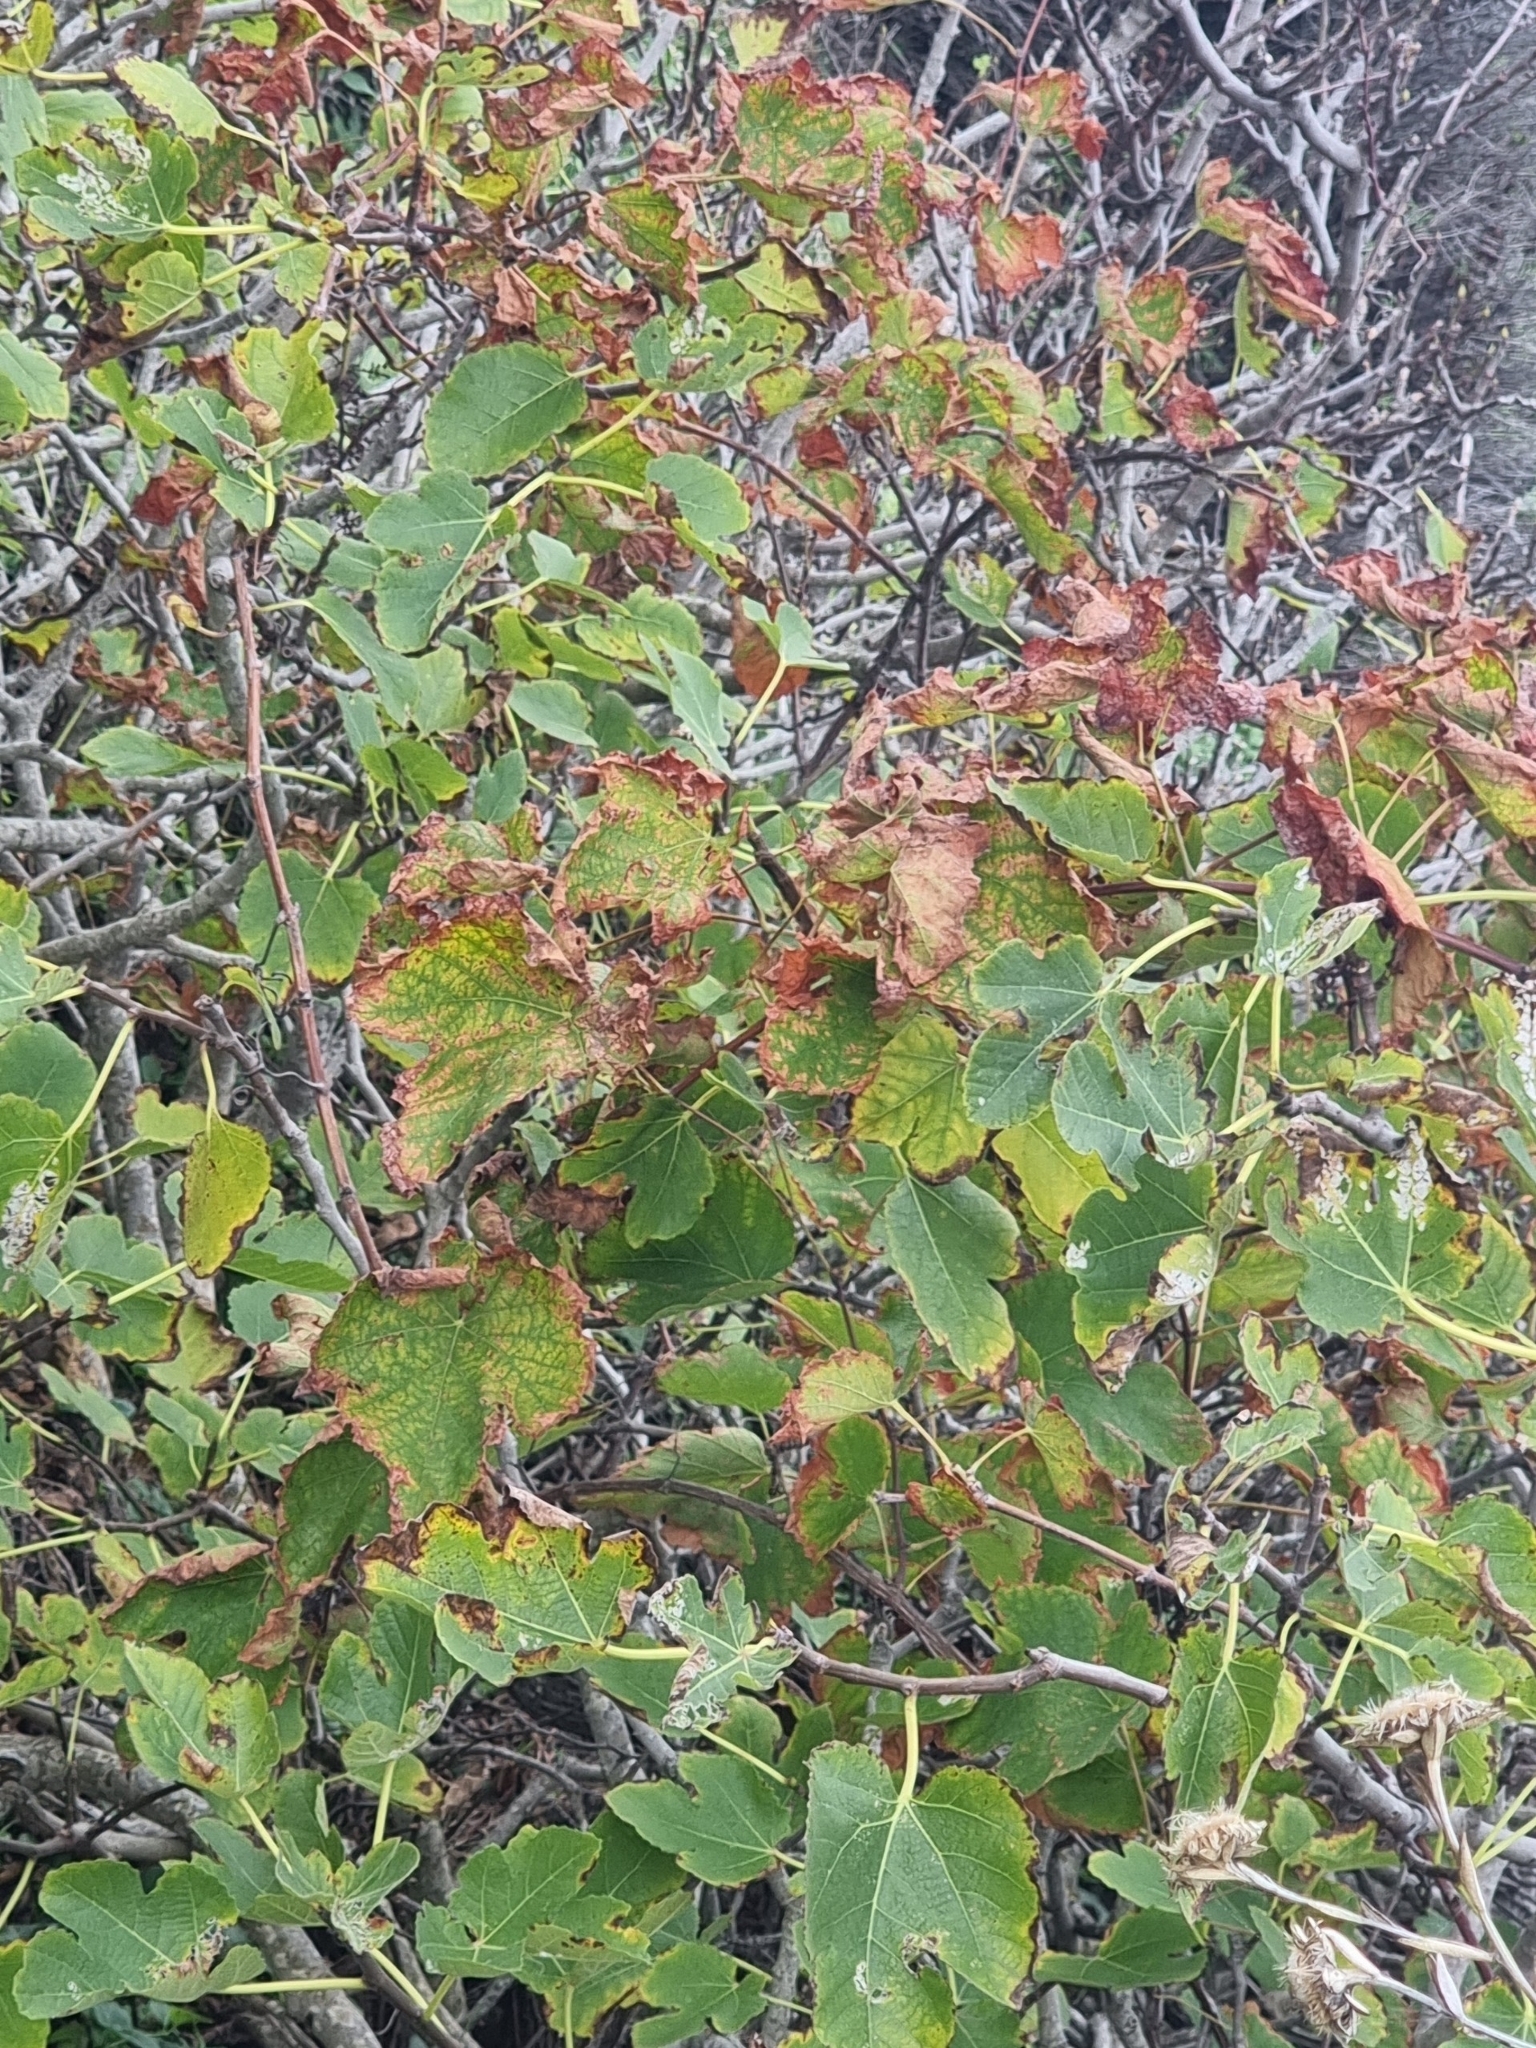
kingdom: Plantae
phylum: Tracheophyta
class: Magnoliopsida
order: Rosales
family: Moraceae
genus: Ficus
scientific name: Ficus carica
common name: Fig
